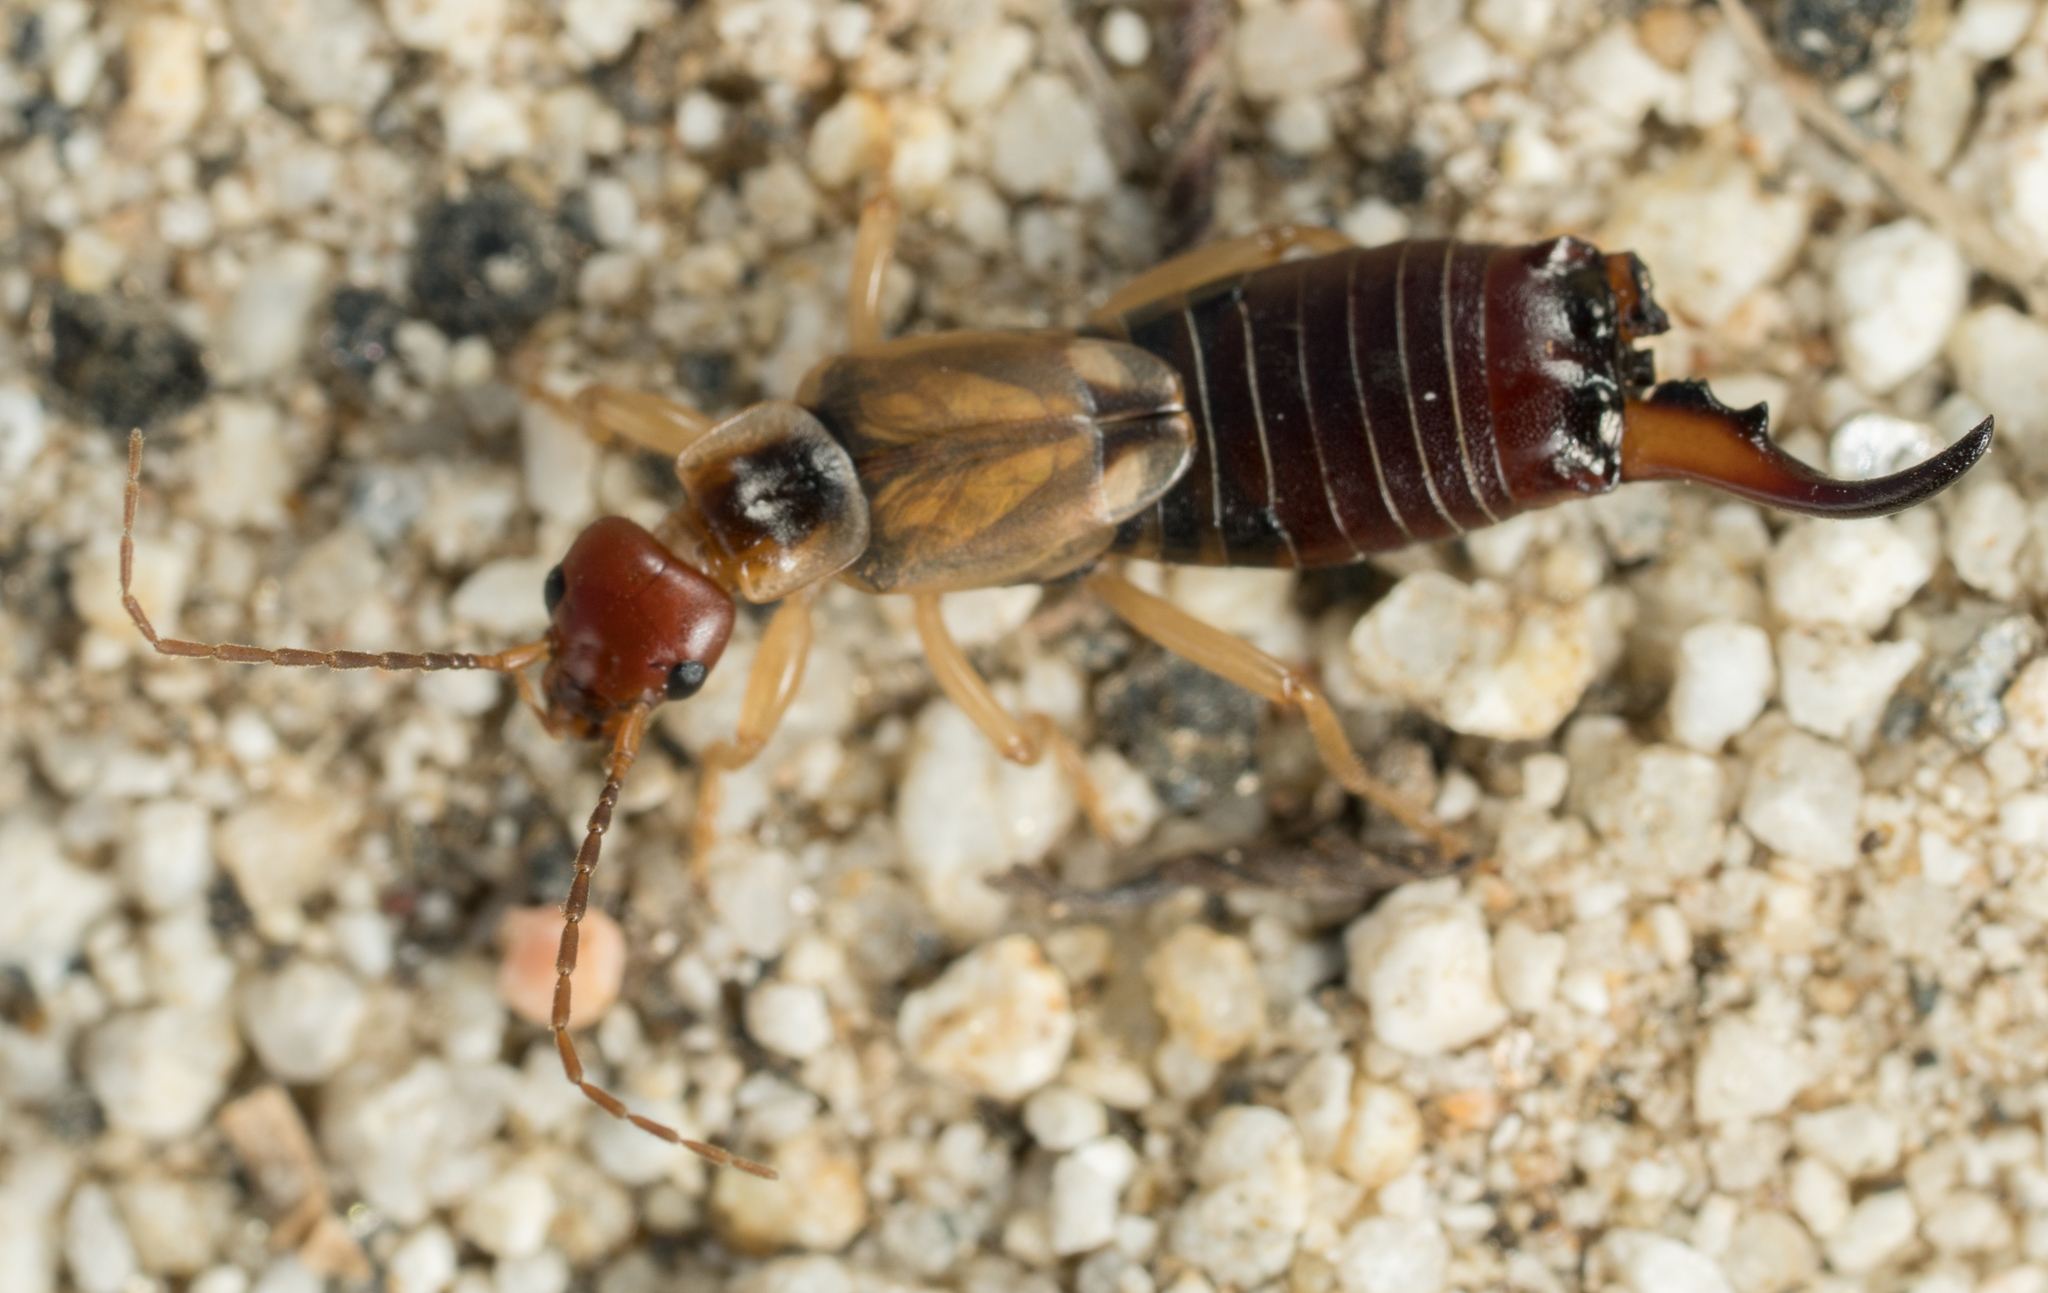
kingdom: Animalia
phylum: Arthropoda
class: Insecta
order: Dermaptera
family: Forficulidae
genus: Forficula
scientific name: Forficula
